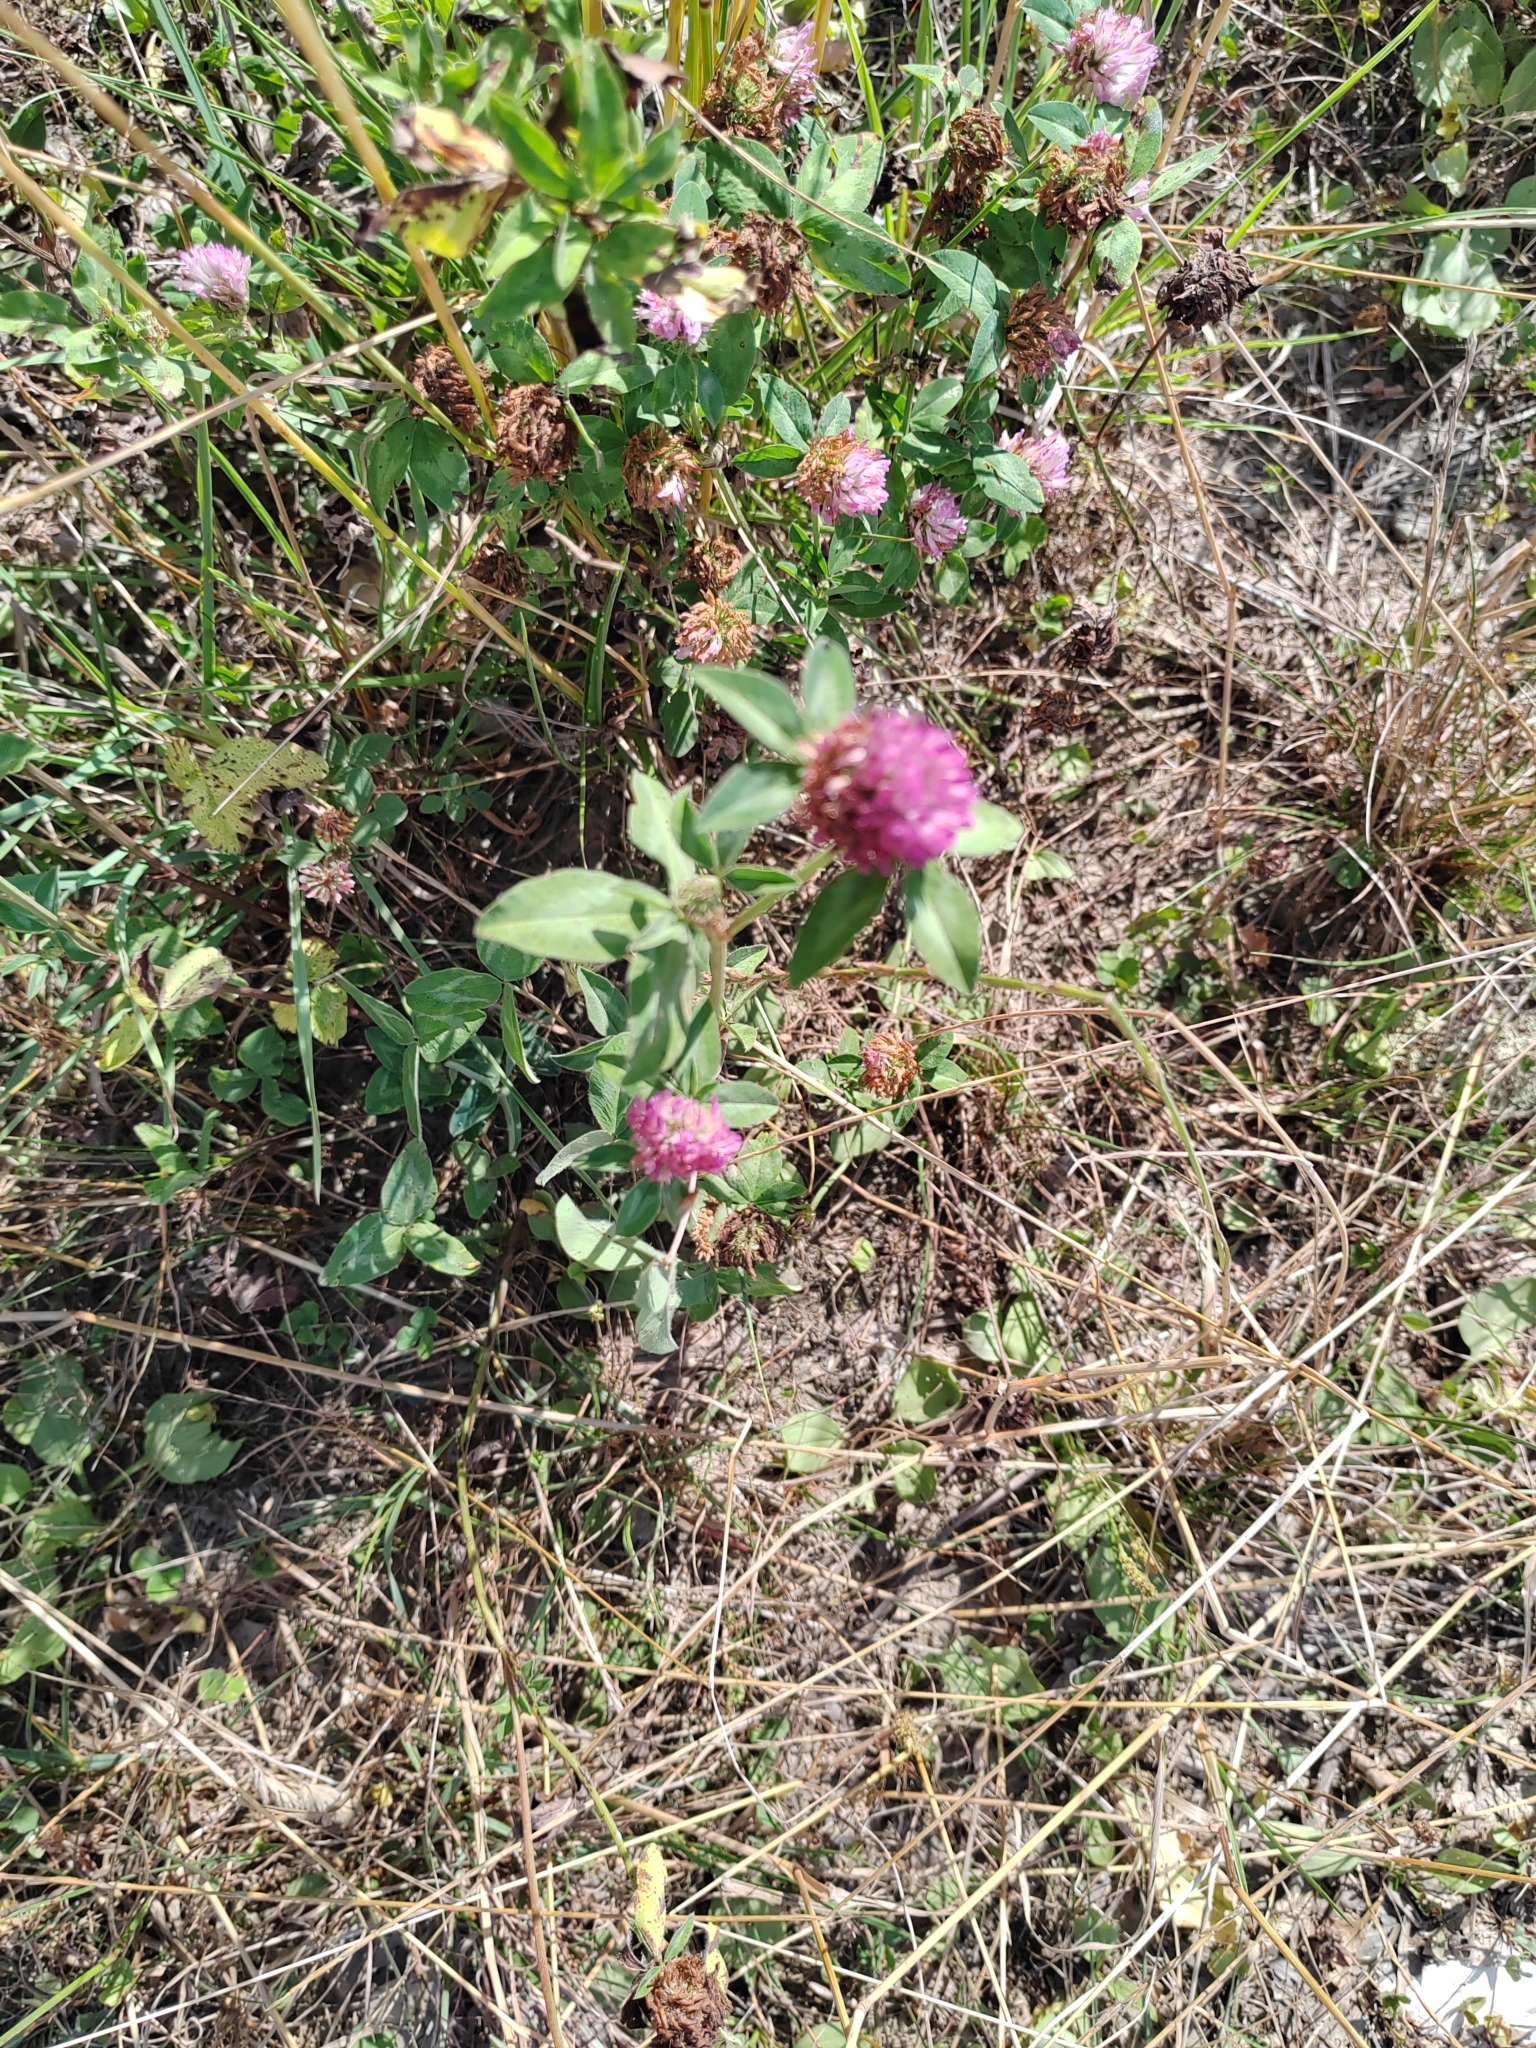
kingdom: Plantae
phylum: Tracheophyta
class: Magnoliopsida
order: Fabales
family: Fabaceae
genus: Trifolium
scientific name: Trifolium pratense
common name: Red clover
